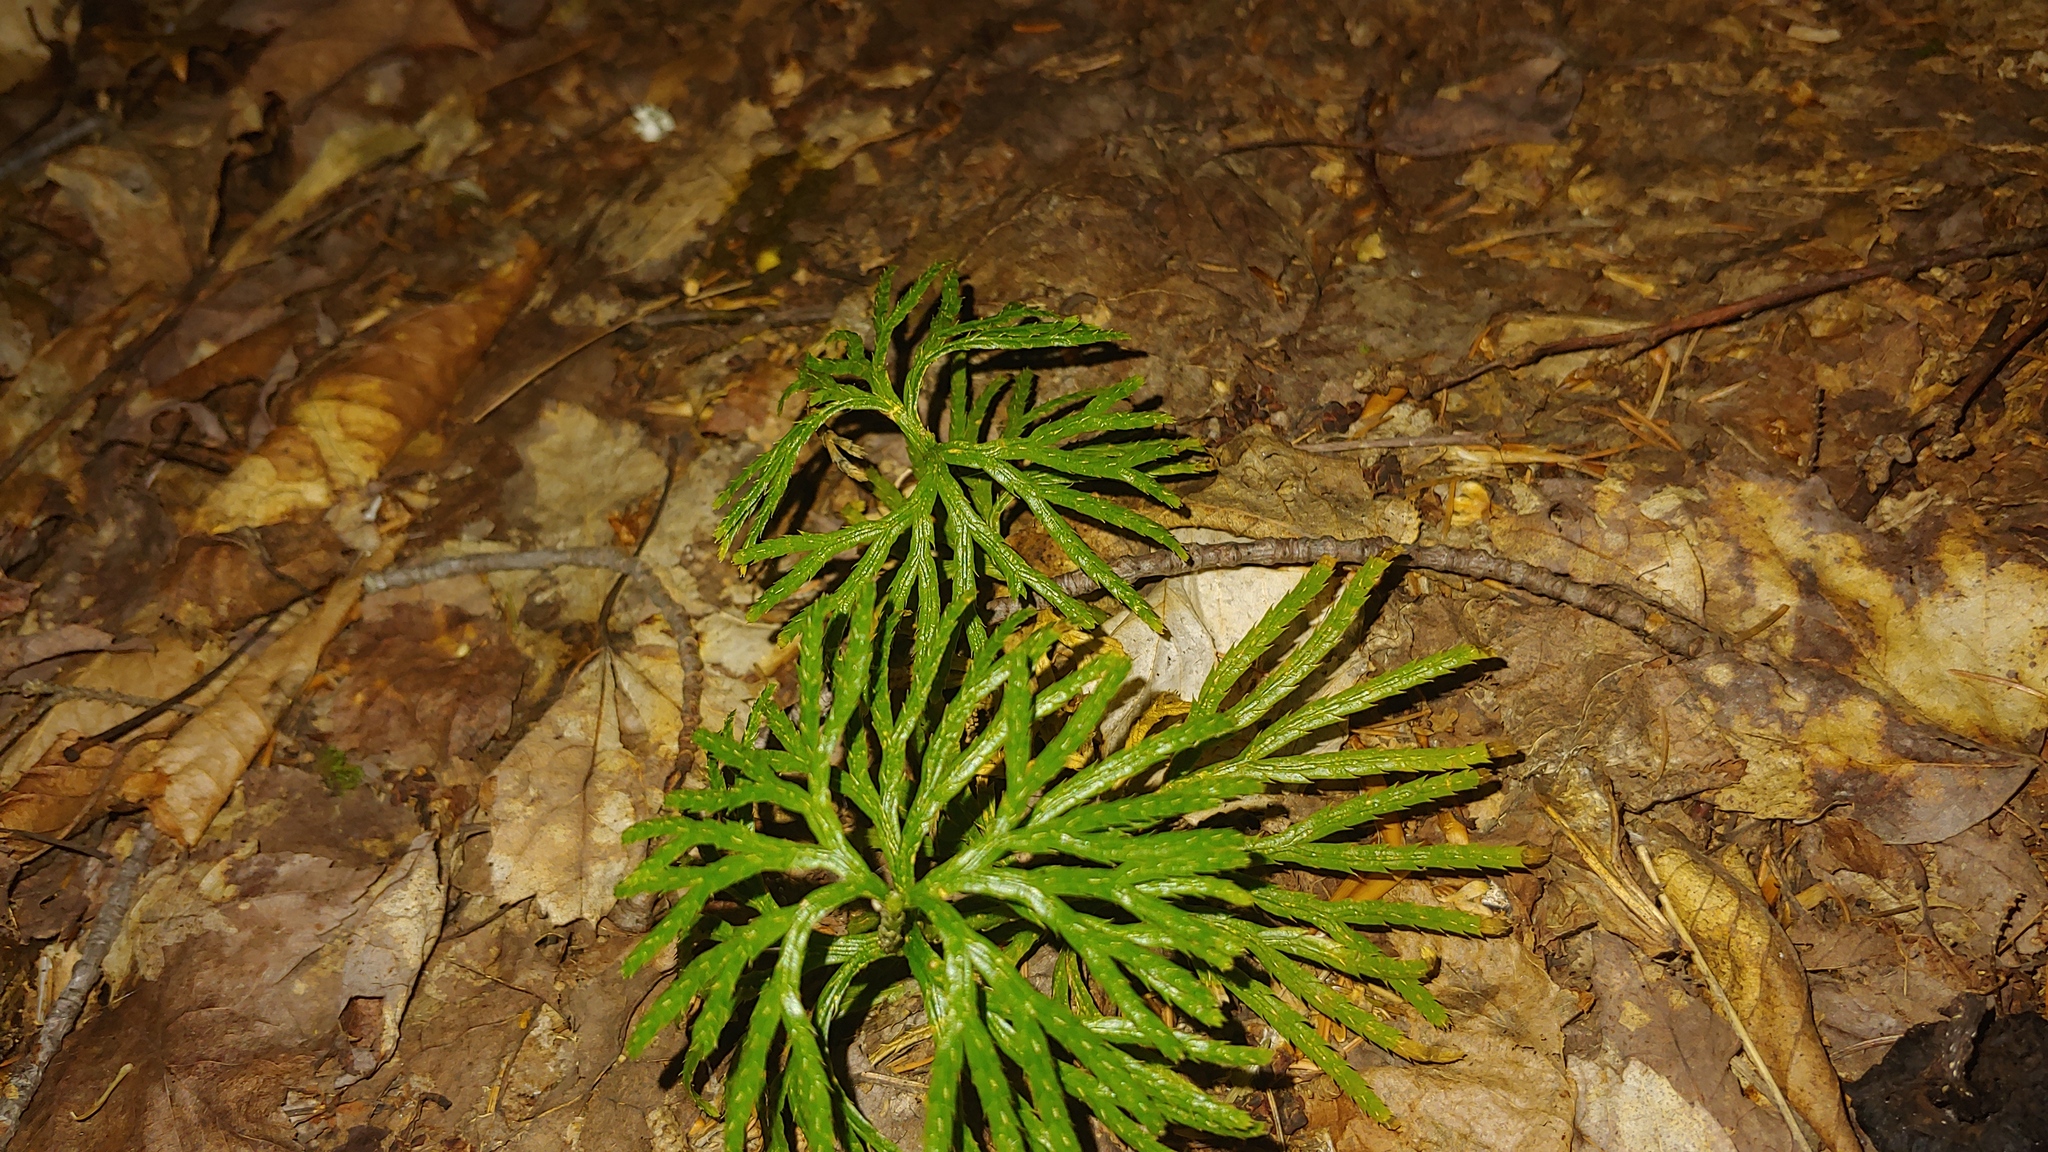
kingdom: Plantae
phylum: Tracheophyta
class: Lycopodiopsida
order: Lycopodiales
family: Lycopodiaceae
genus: Diphasiastrum
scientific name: Diphasiastrum digitatum
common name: Southern running-pine
